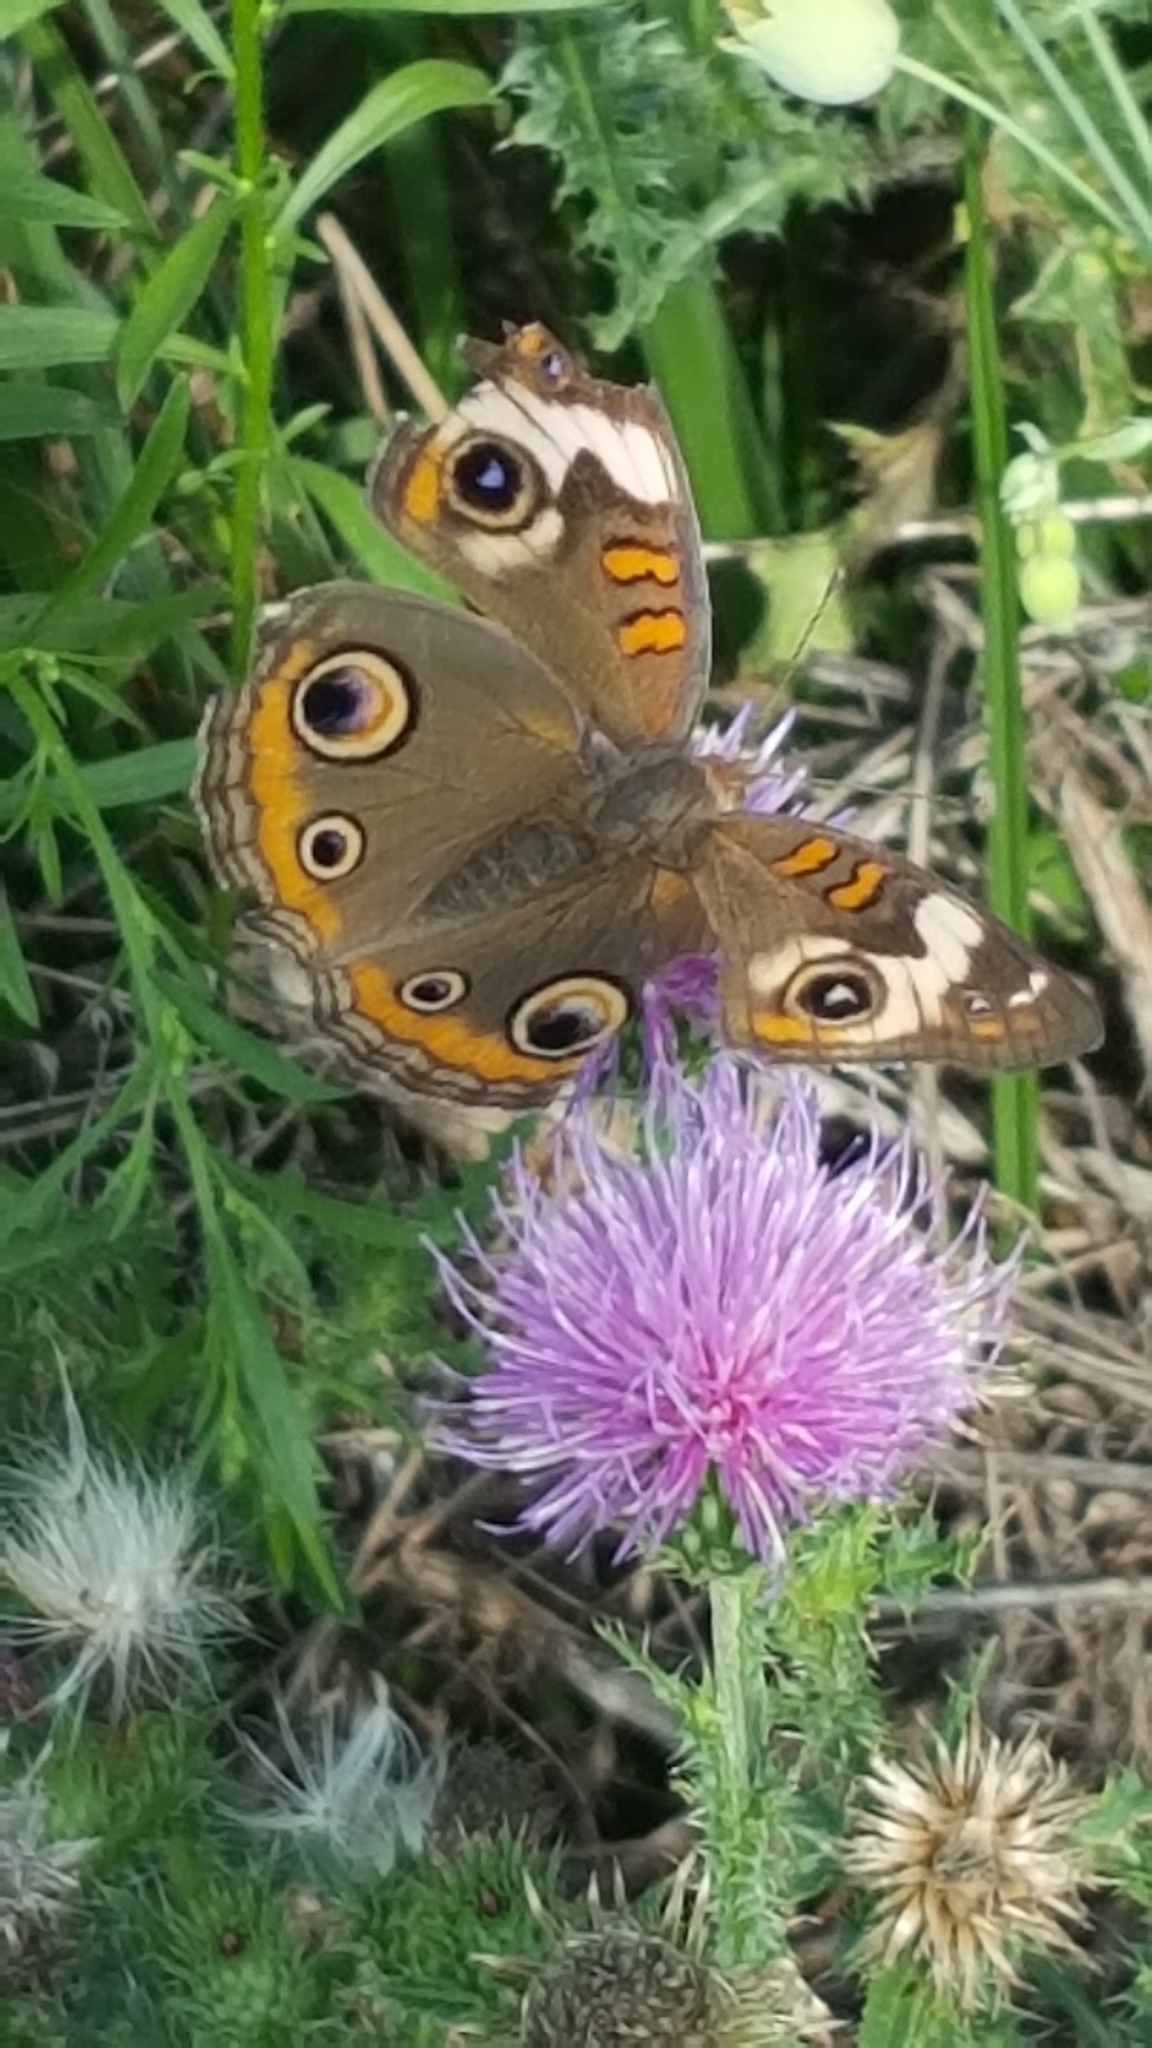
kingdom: Animalia
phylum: Arthropoda
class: Insecta
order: Lepidoptera
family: Nymphalidae
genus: Junonia
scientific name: Junonia coenia
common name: Common buckeye
